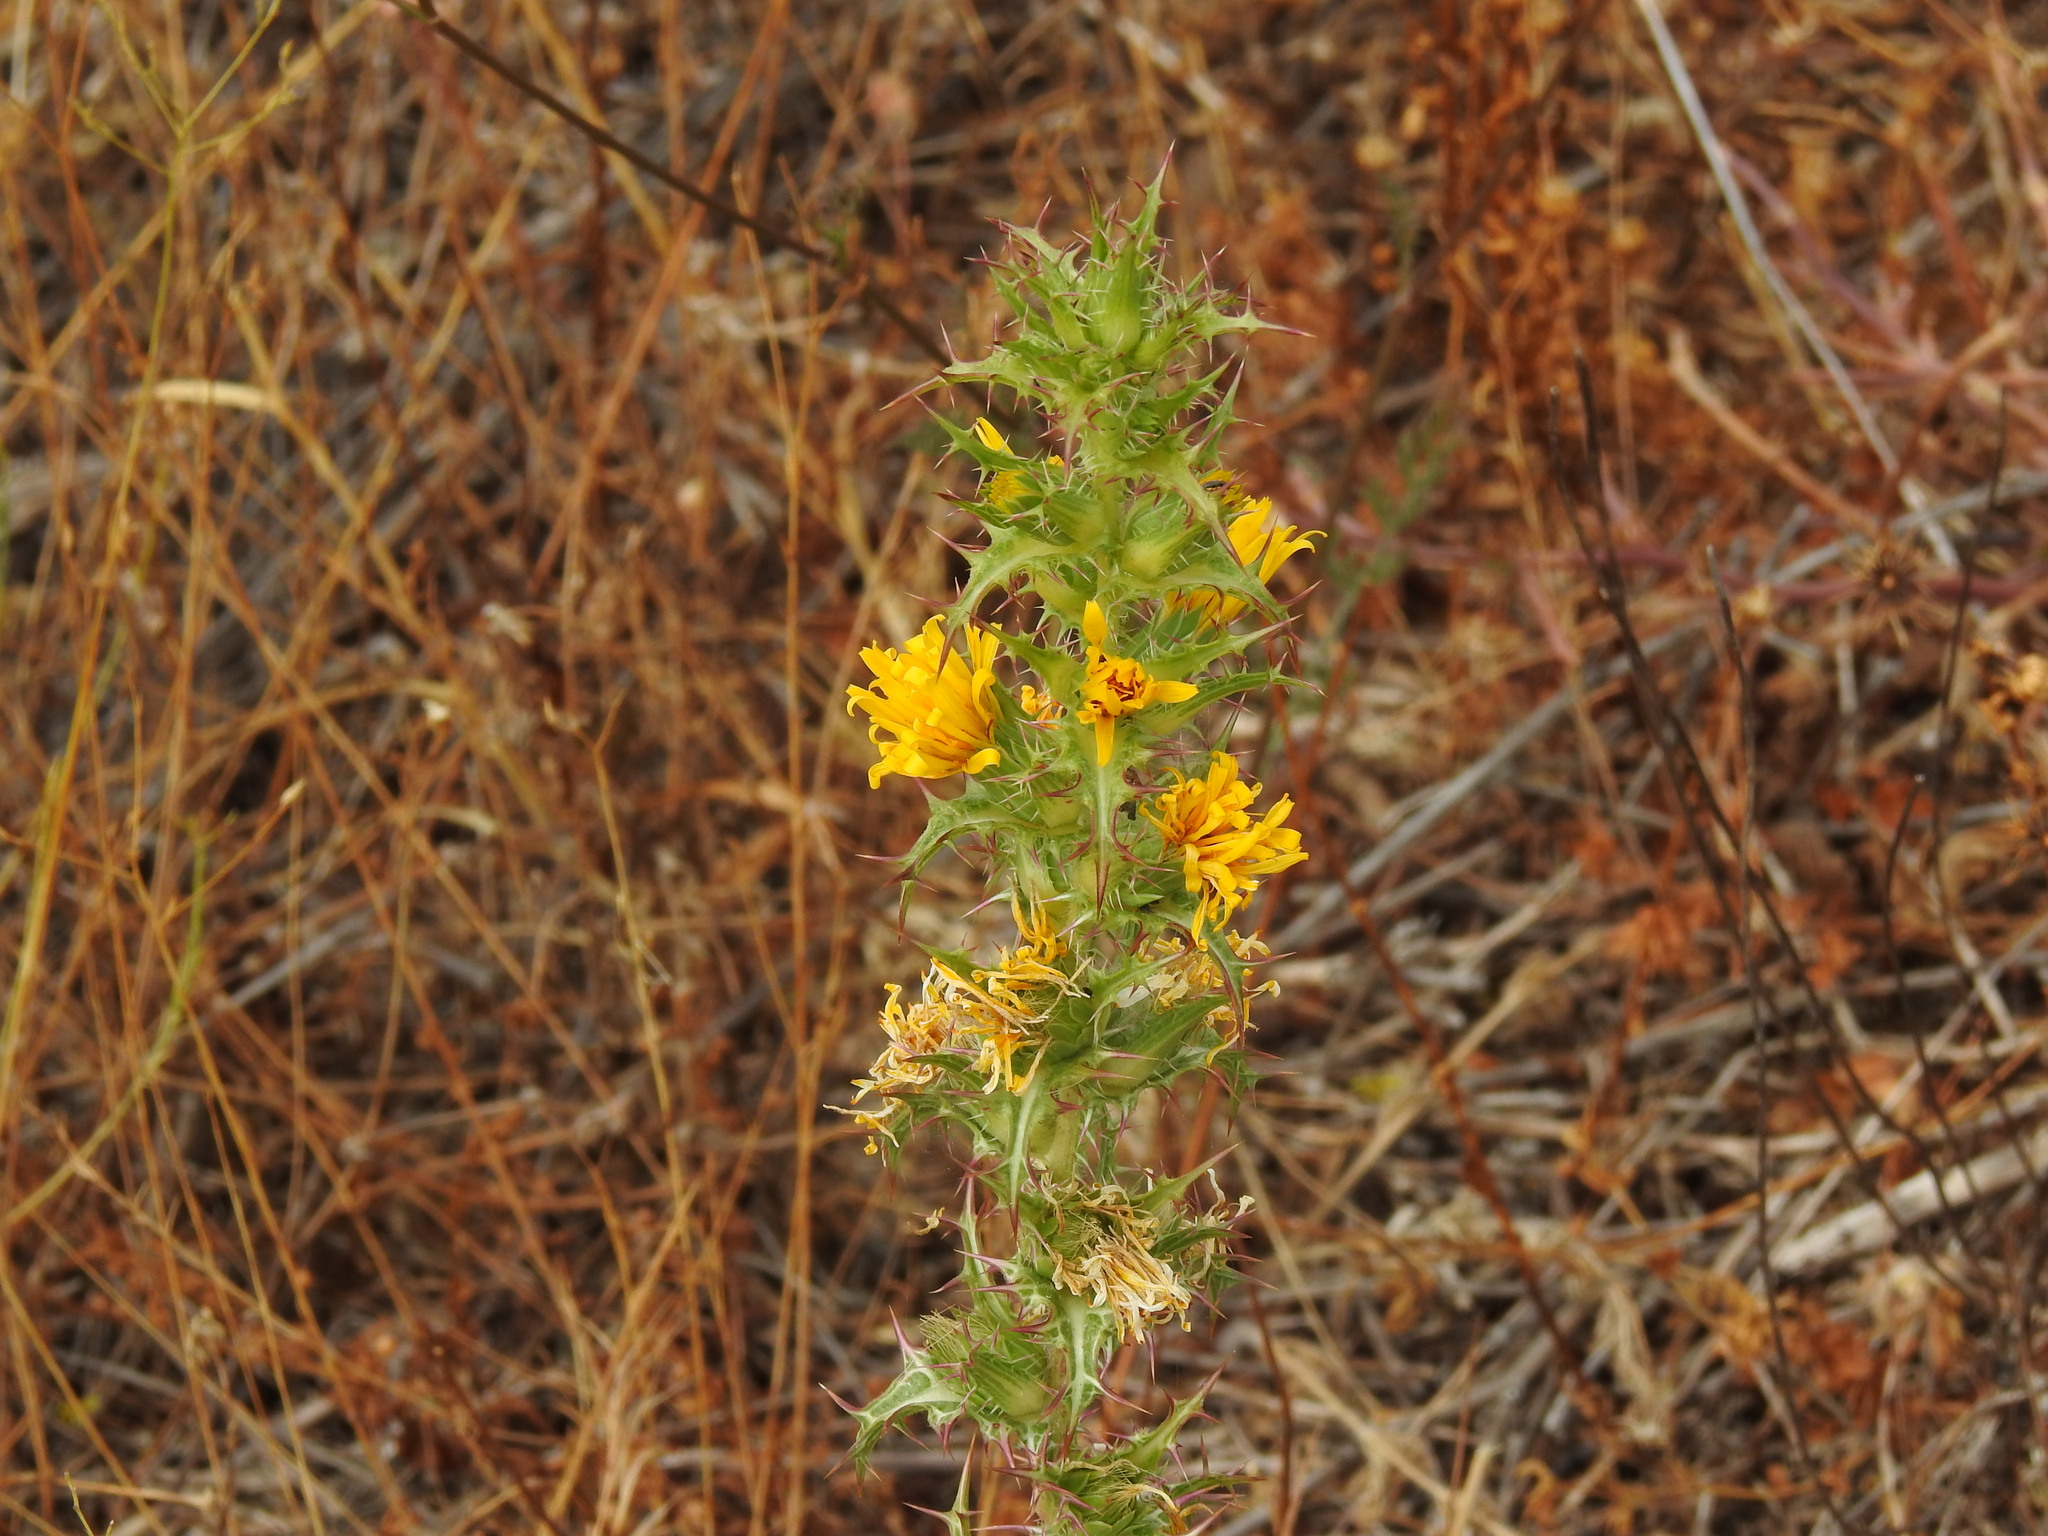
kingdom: Plantae
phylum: Tracheophyta
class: Magnoliopsida
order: Asterales
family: Asteraceae
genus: Scolymus
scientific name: Scolymus hispanicus
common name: Golden thistle
